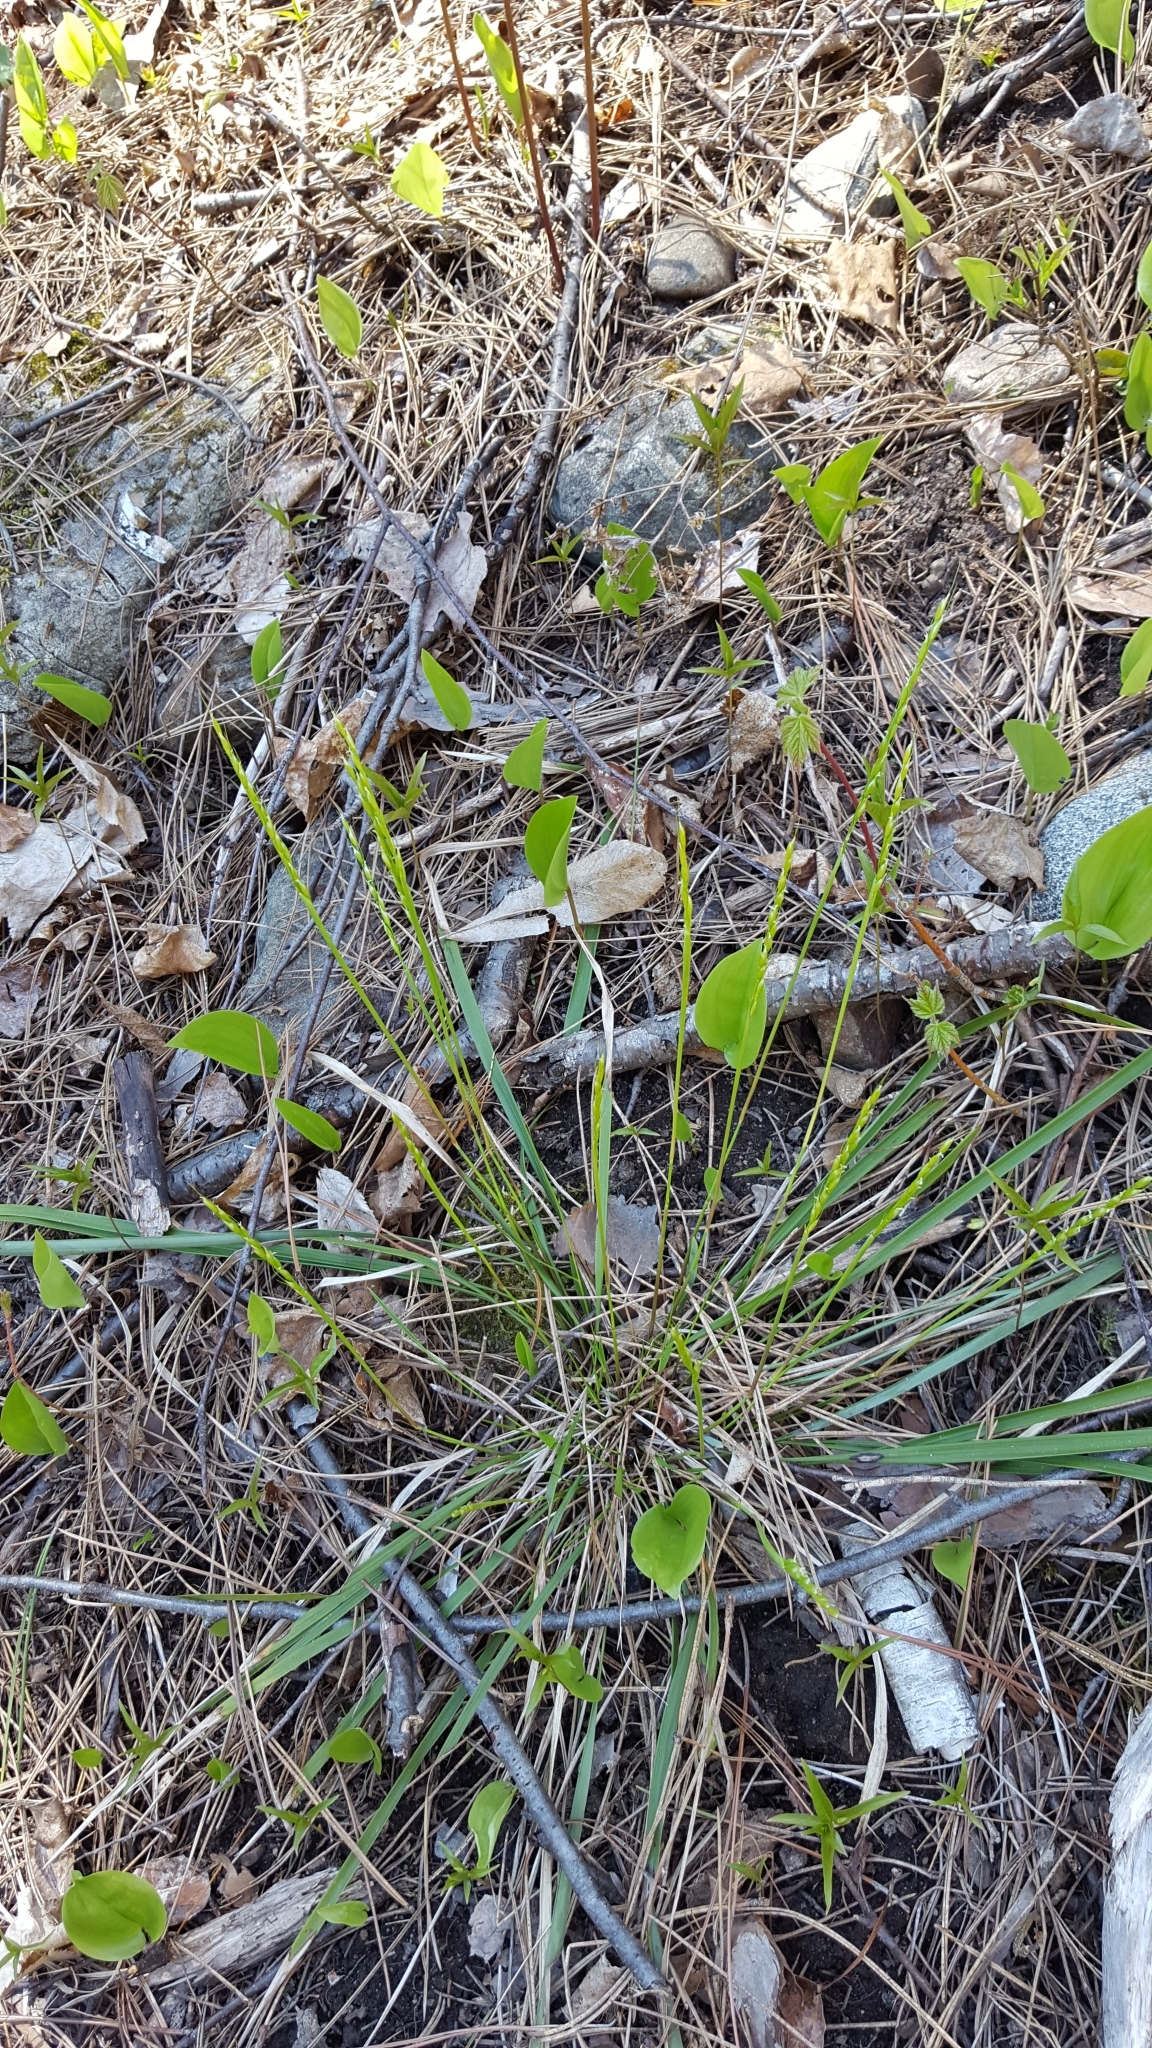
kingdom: Plantae
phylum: Tracheophyta
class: Liliopsida
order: Poales
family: Poaceae
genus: Oryzopsis
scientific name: Oryzopsis asperifolia
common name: Rough-leaved mountain rice
